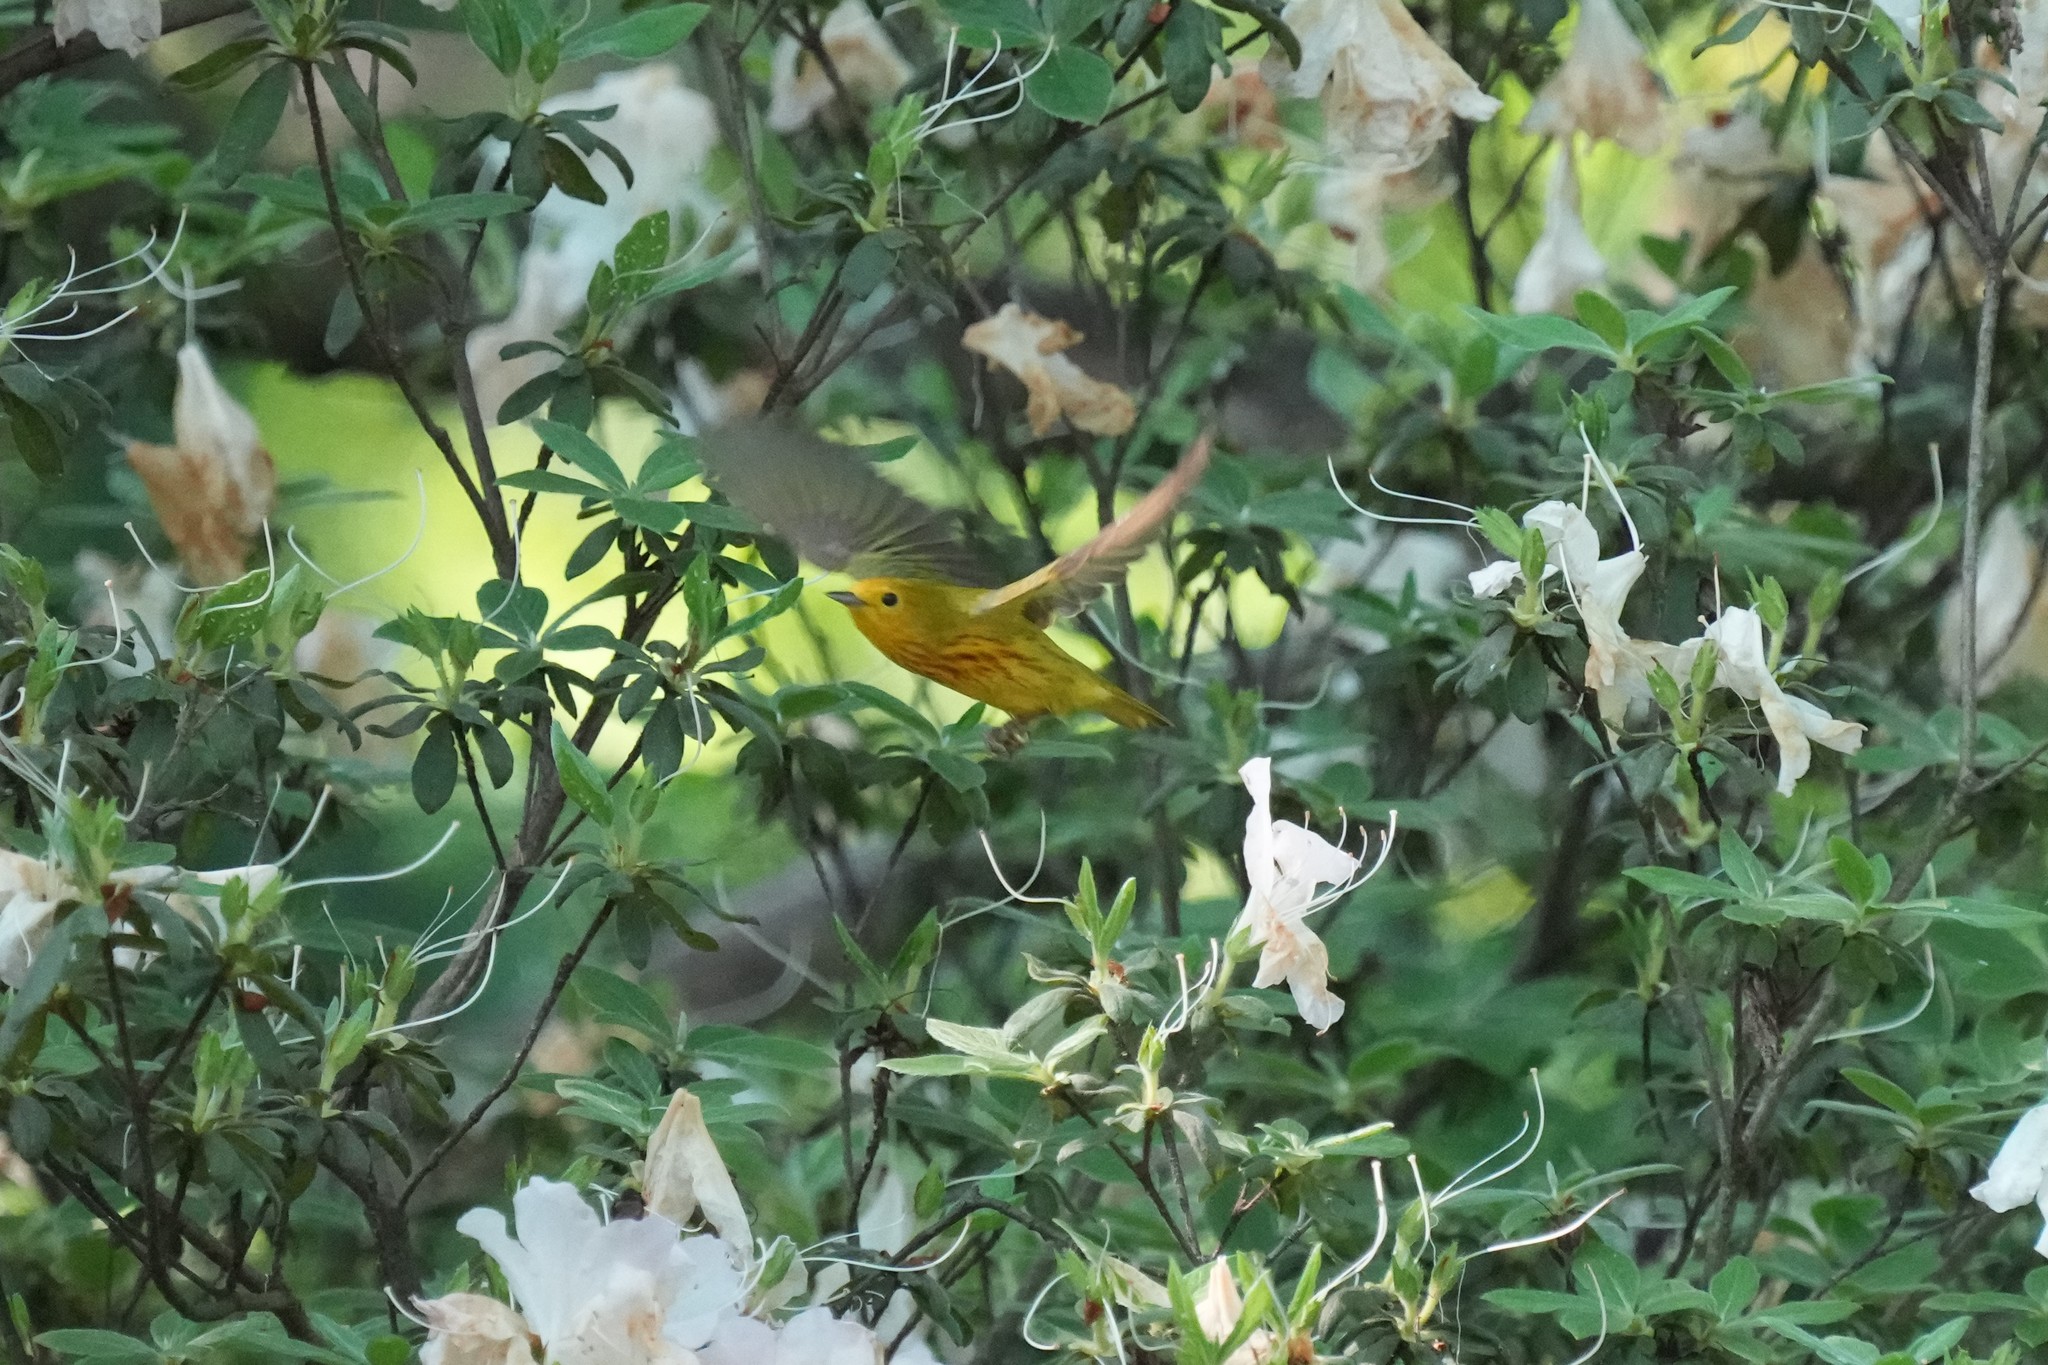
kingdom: Animalia
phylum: Chordata
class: Aves
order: Passeriformes
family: Parulidae
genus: Setophaga
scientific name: Setophaga petechia
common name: Yellow warbler
